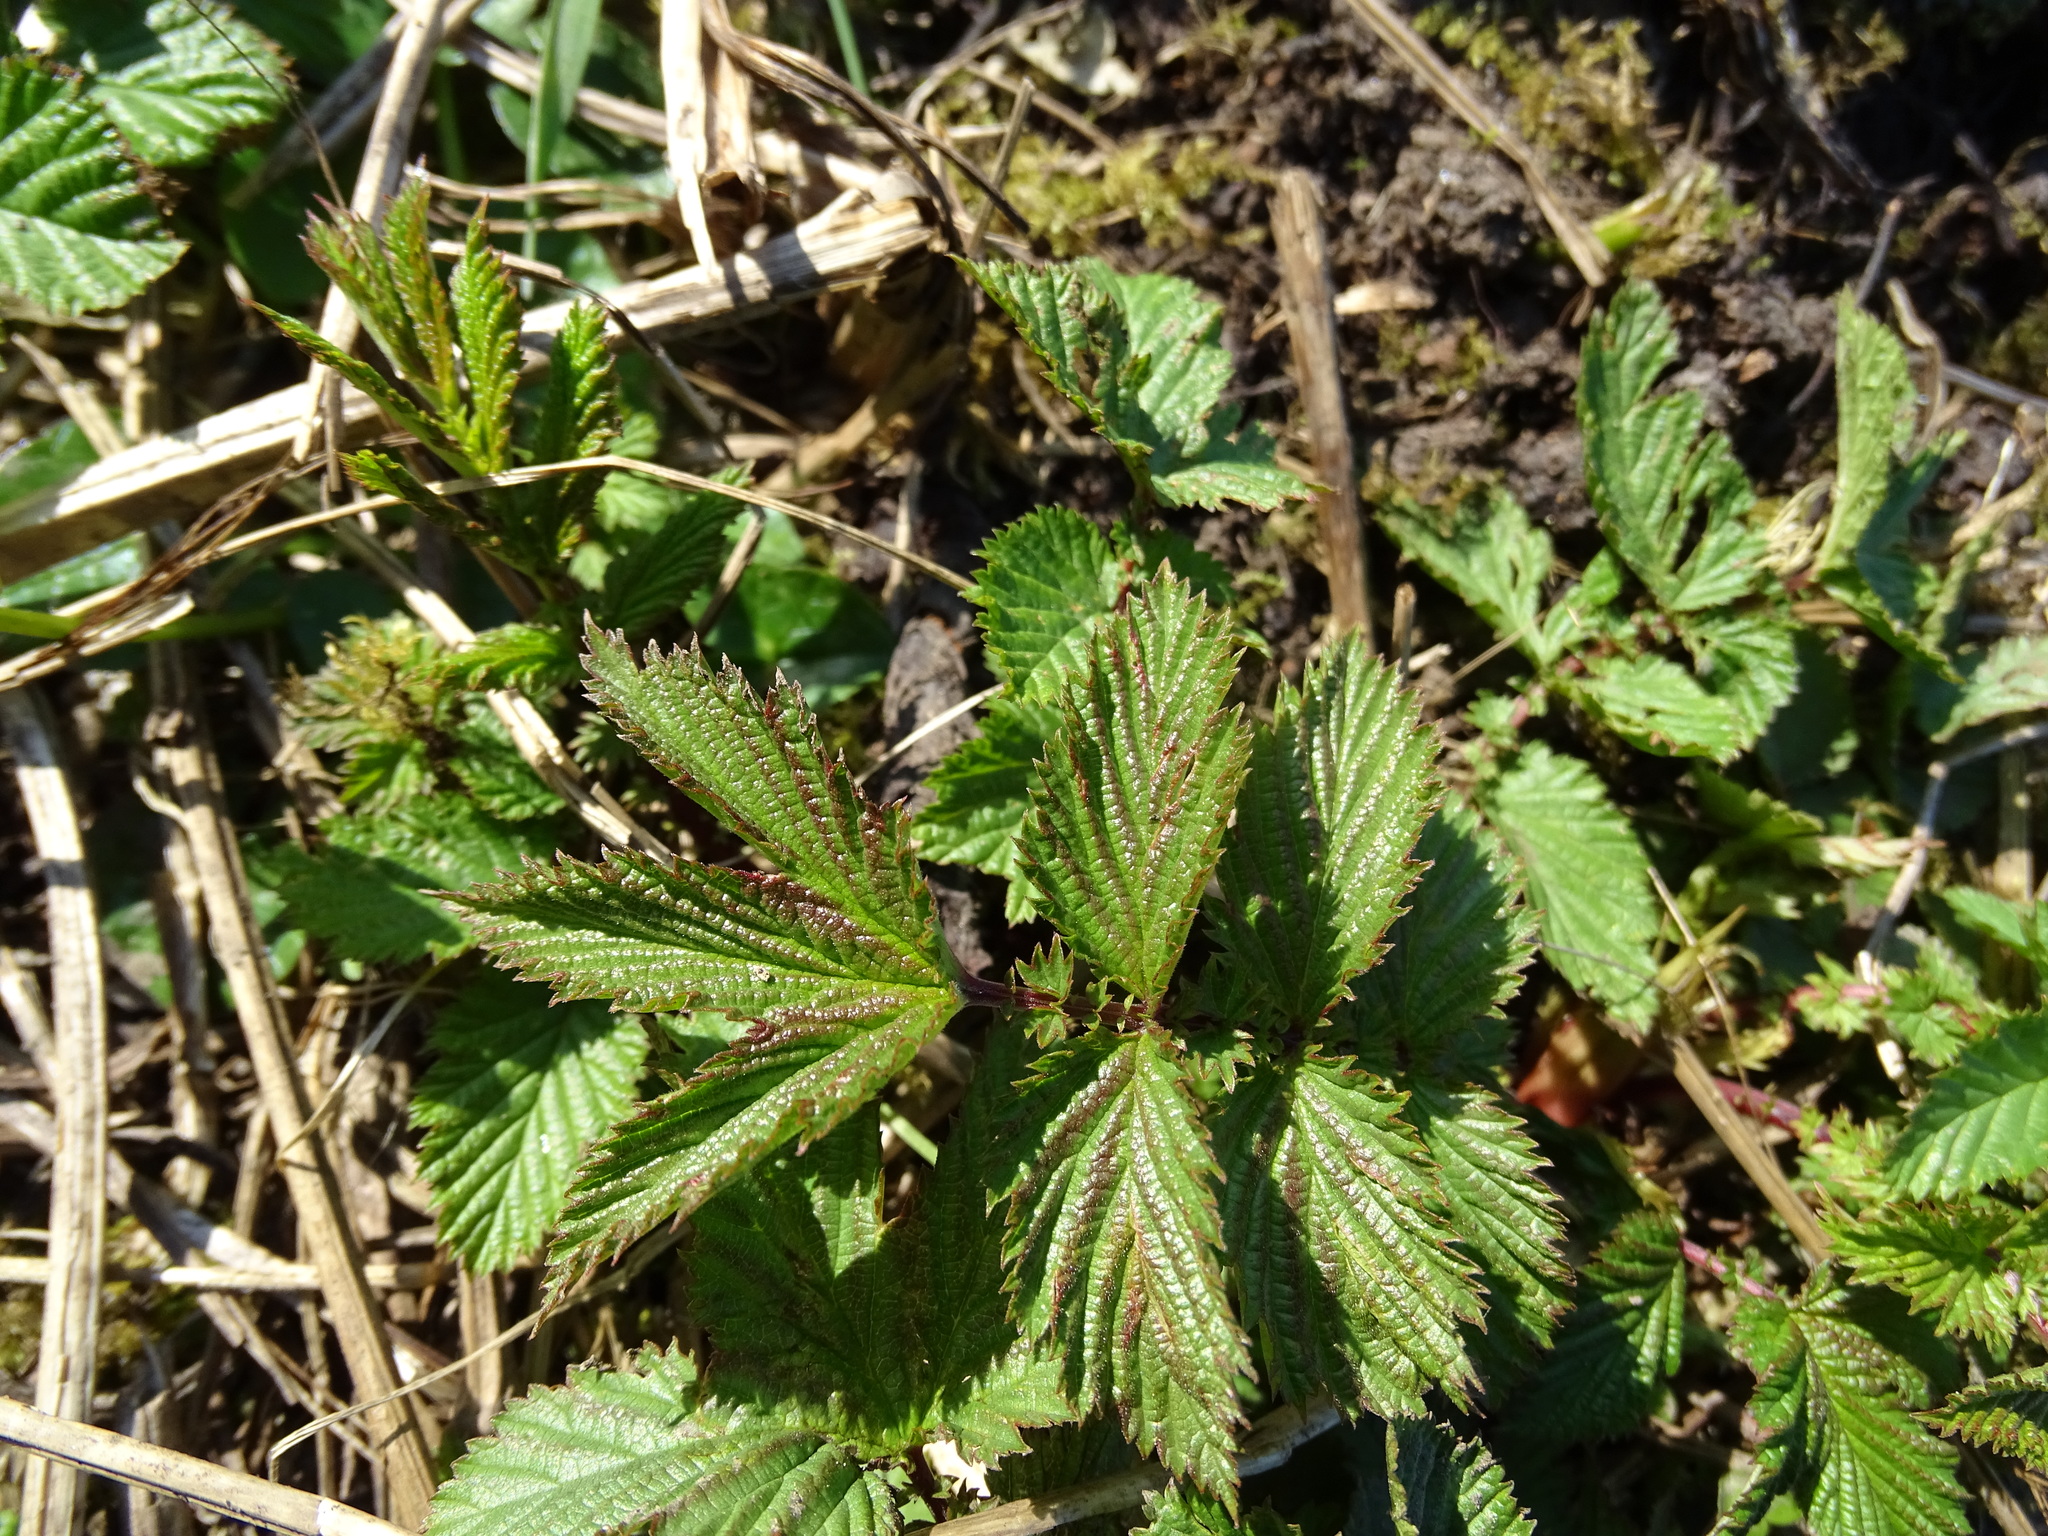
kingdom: Plantae
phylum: Tracheophyta
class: Magnoliopsida
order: Rosales
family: Rosaceae
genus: Filipendula
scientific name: Filipendula ulmaria
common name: Meadowsweet
